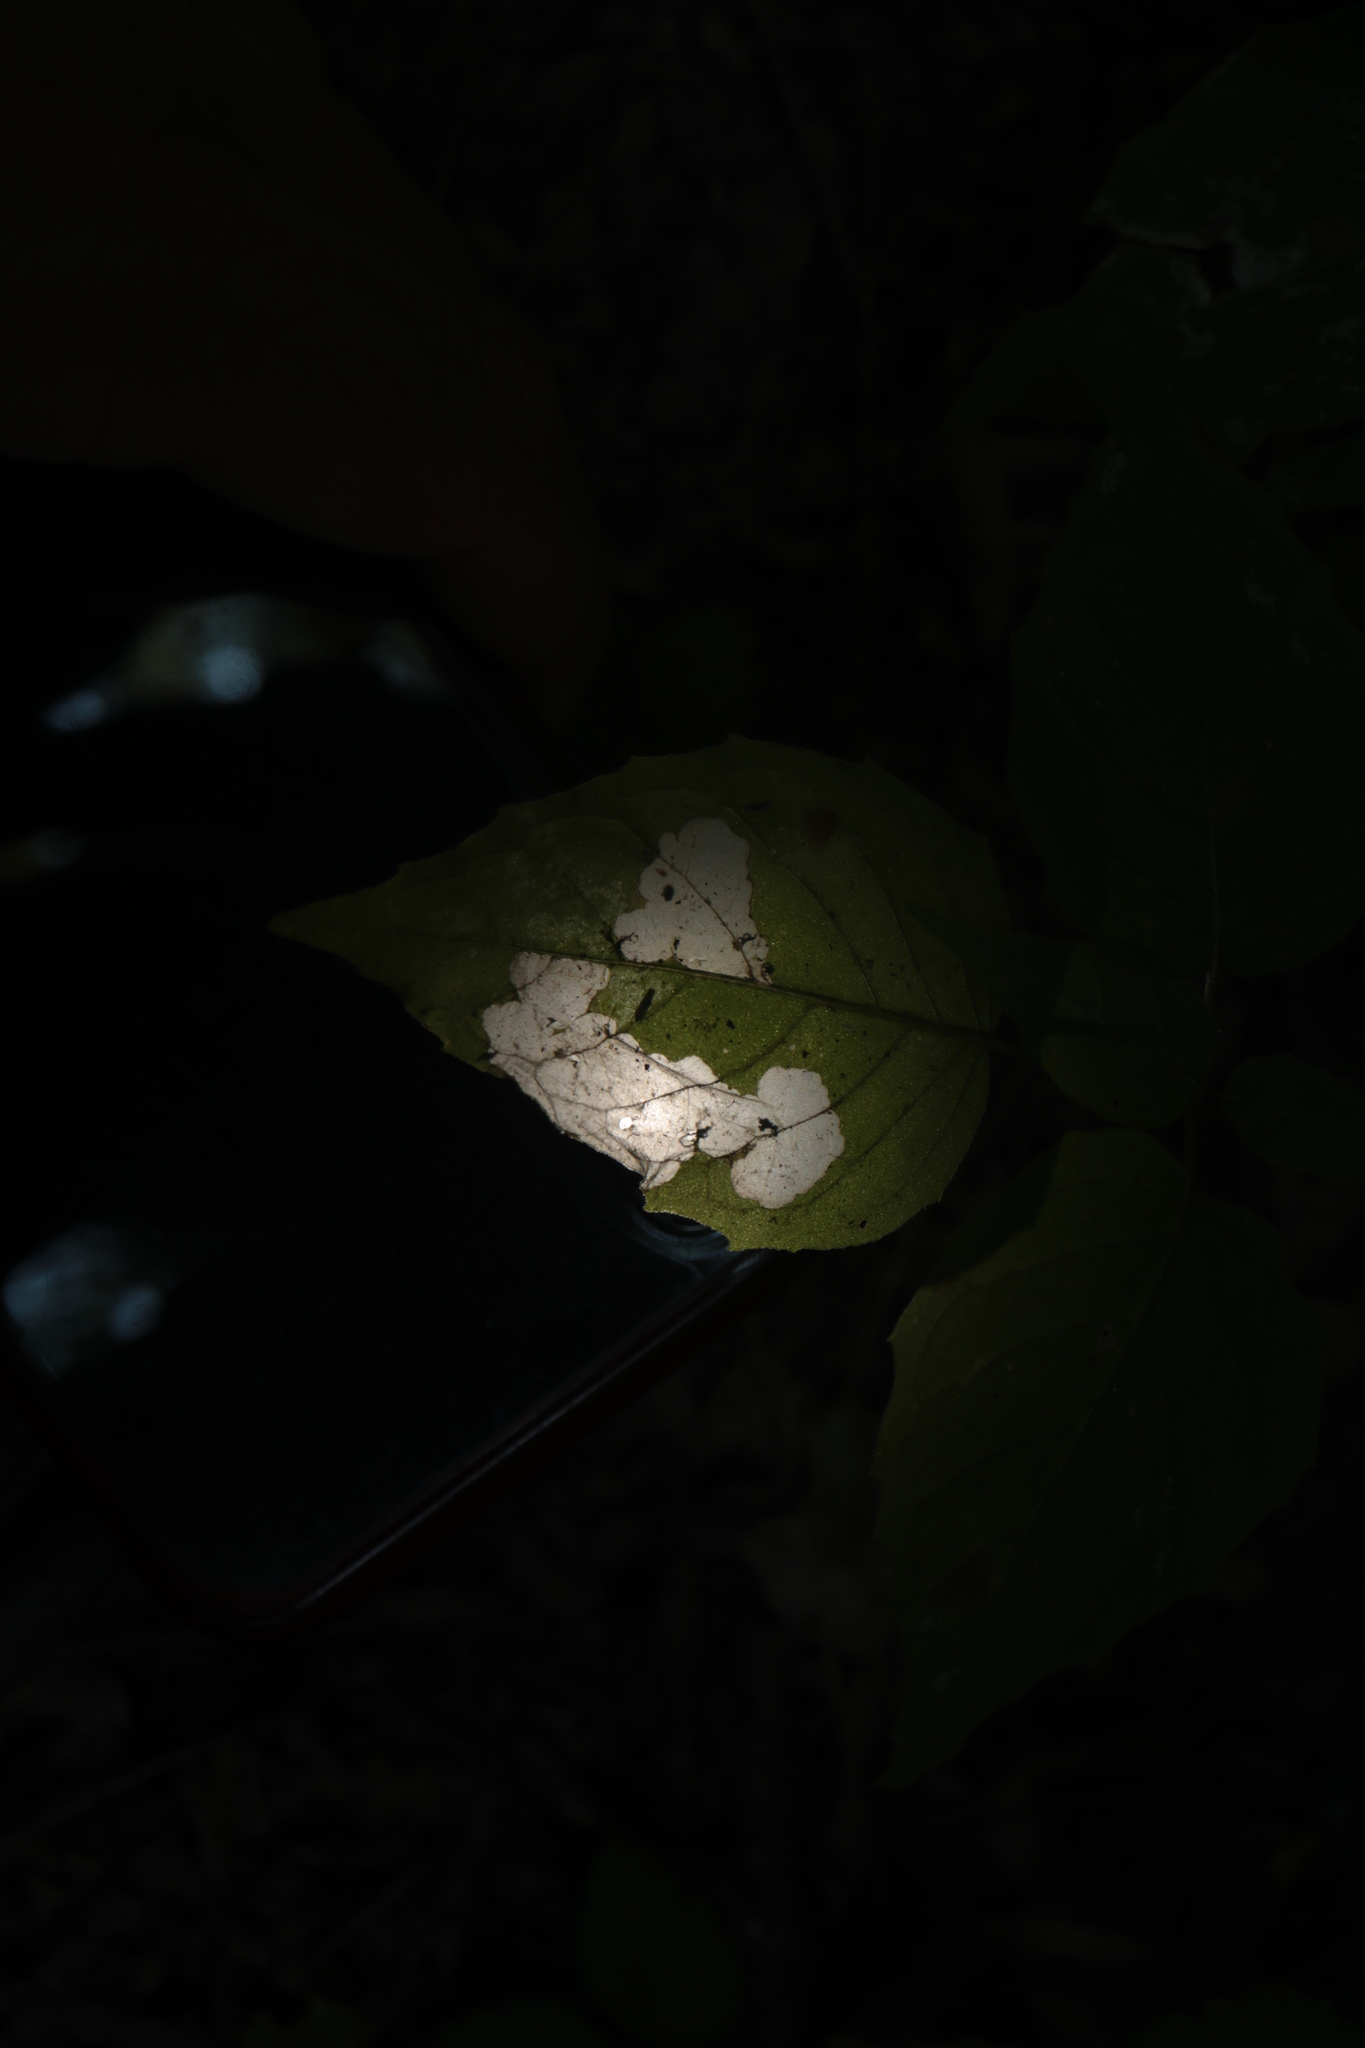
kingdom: Animalia
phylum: Arthropoda
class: Insecta
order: Lepidoptera
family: Momphidae
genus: Mompha
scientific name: Mompha terminella
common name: Enchanters cosmet
